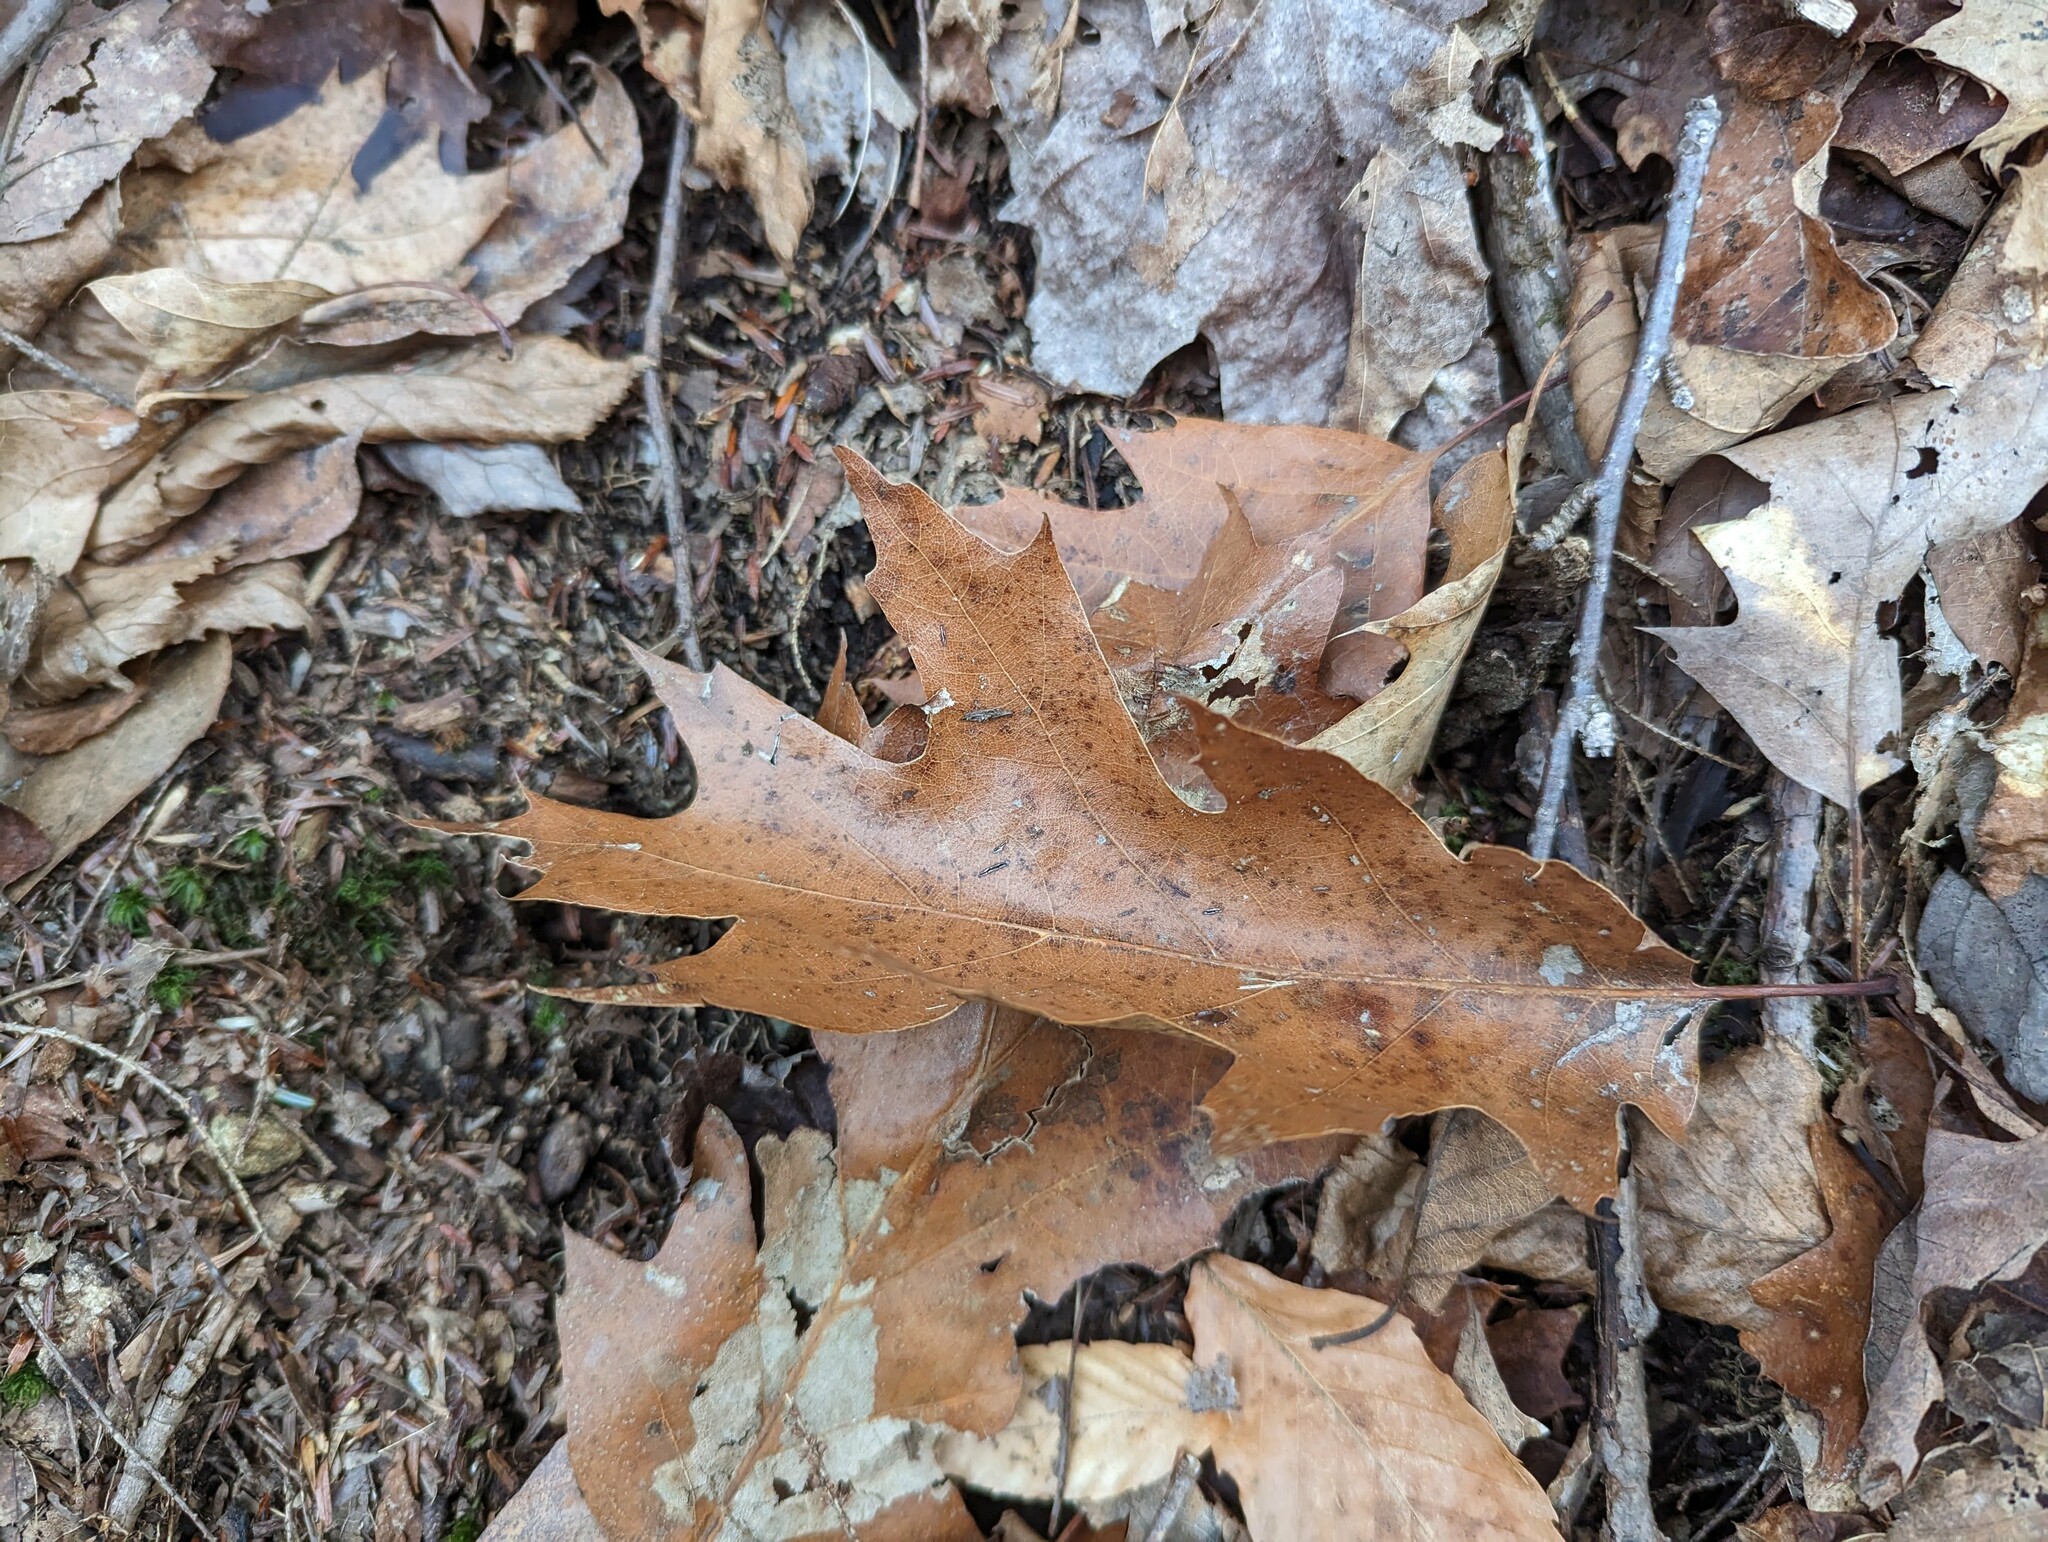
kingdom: Plantae
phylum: Tracheophyta
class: Magnoliopsida
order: Fagales
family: Fagaceae
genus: Quercus
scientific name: Quercus rubra
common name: Red oak
